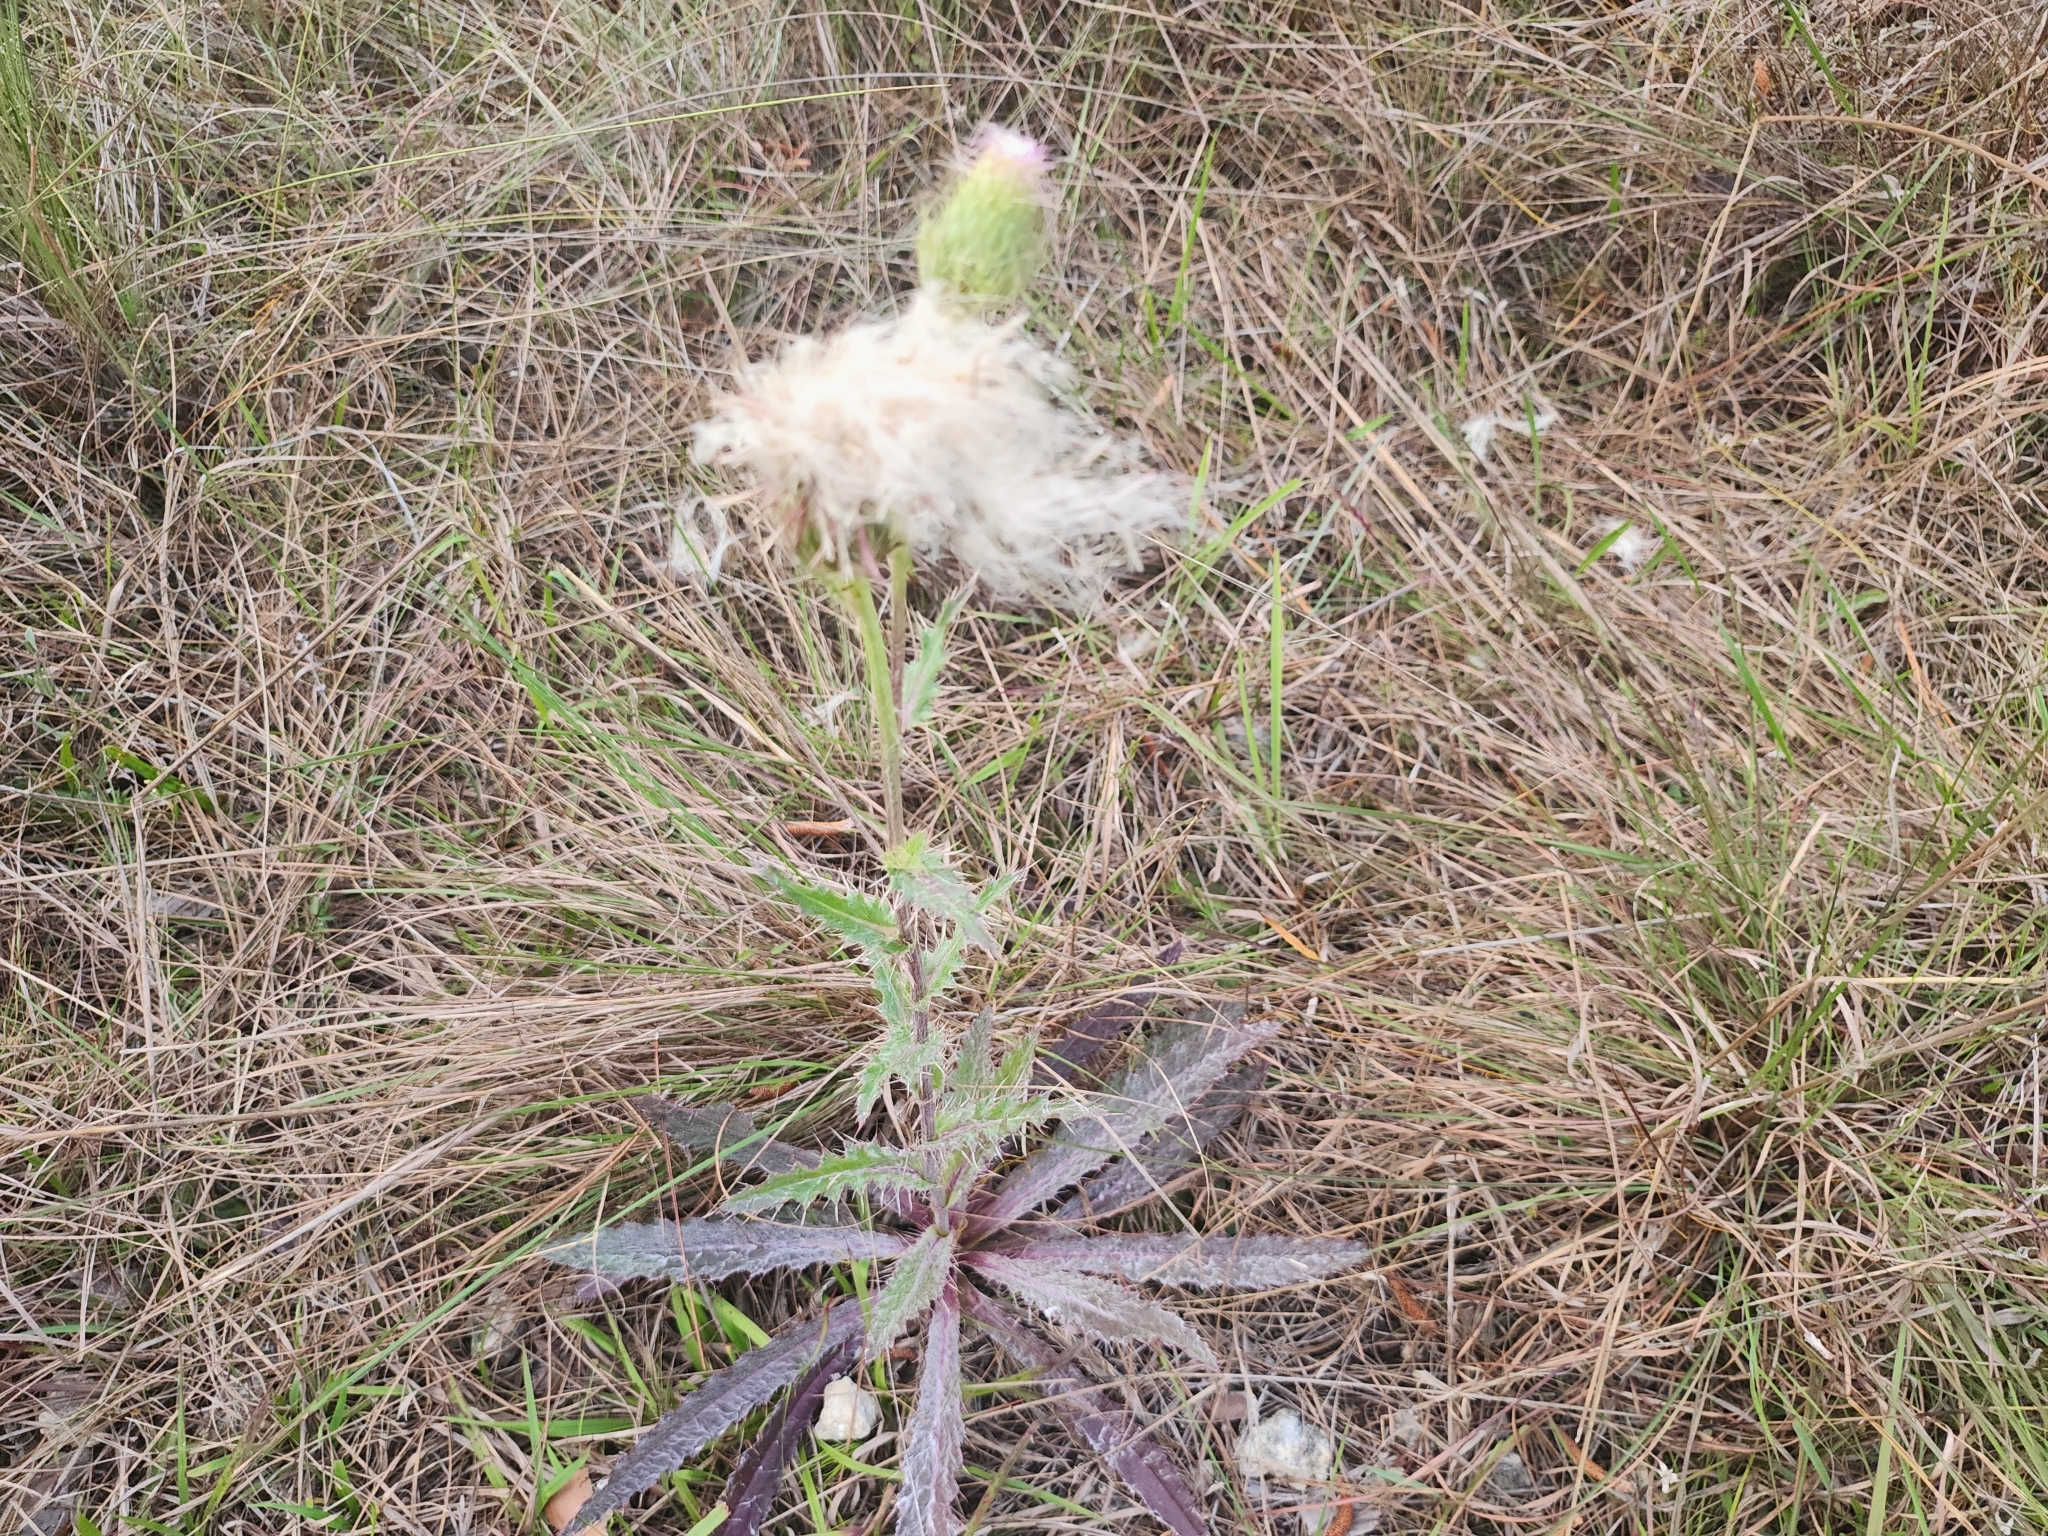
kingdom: Plantae
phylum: Tracheophyta
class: Magnoliopsida
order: Asterales
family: Asteraceae
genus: Cirsium
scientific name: Cirsium horridulum
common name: Bristly thistle
